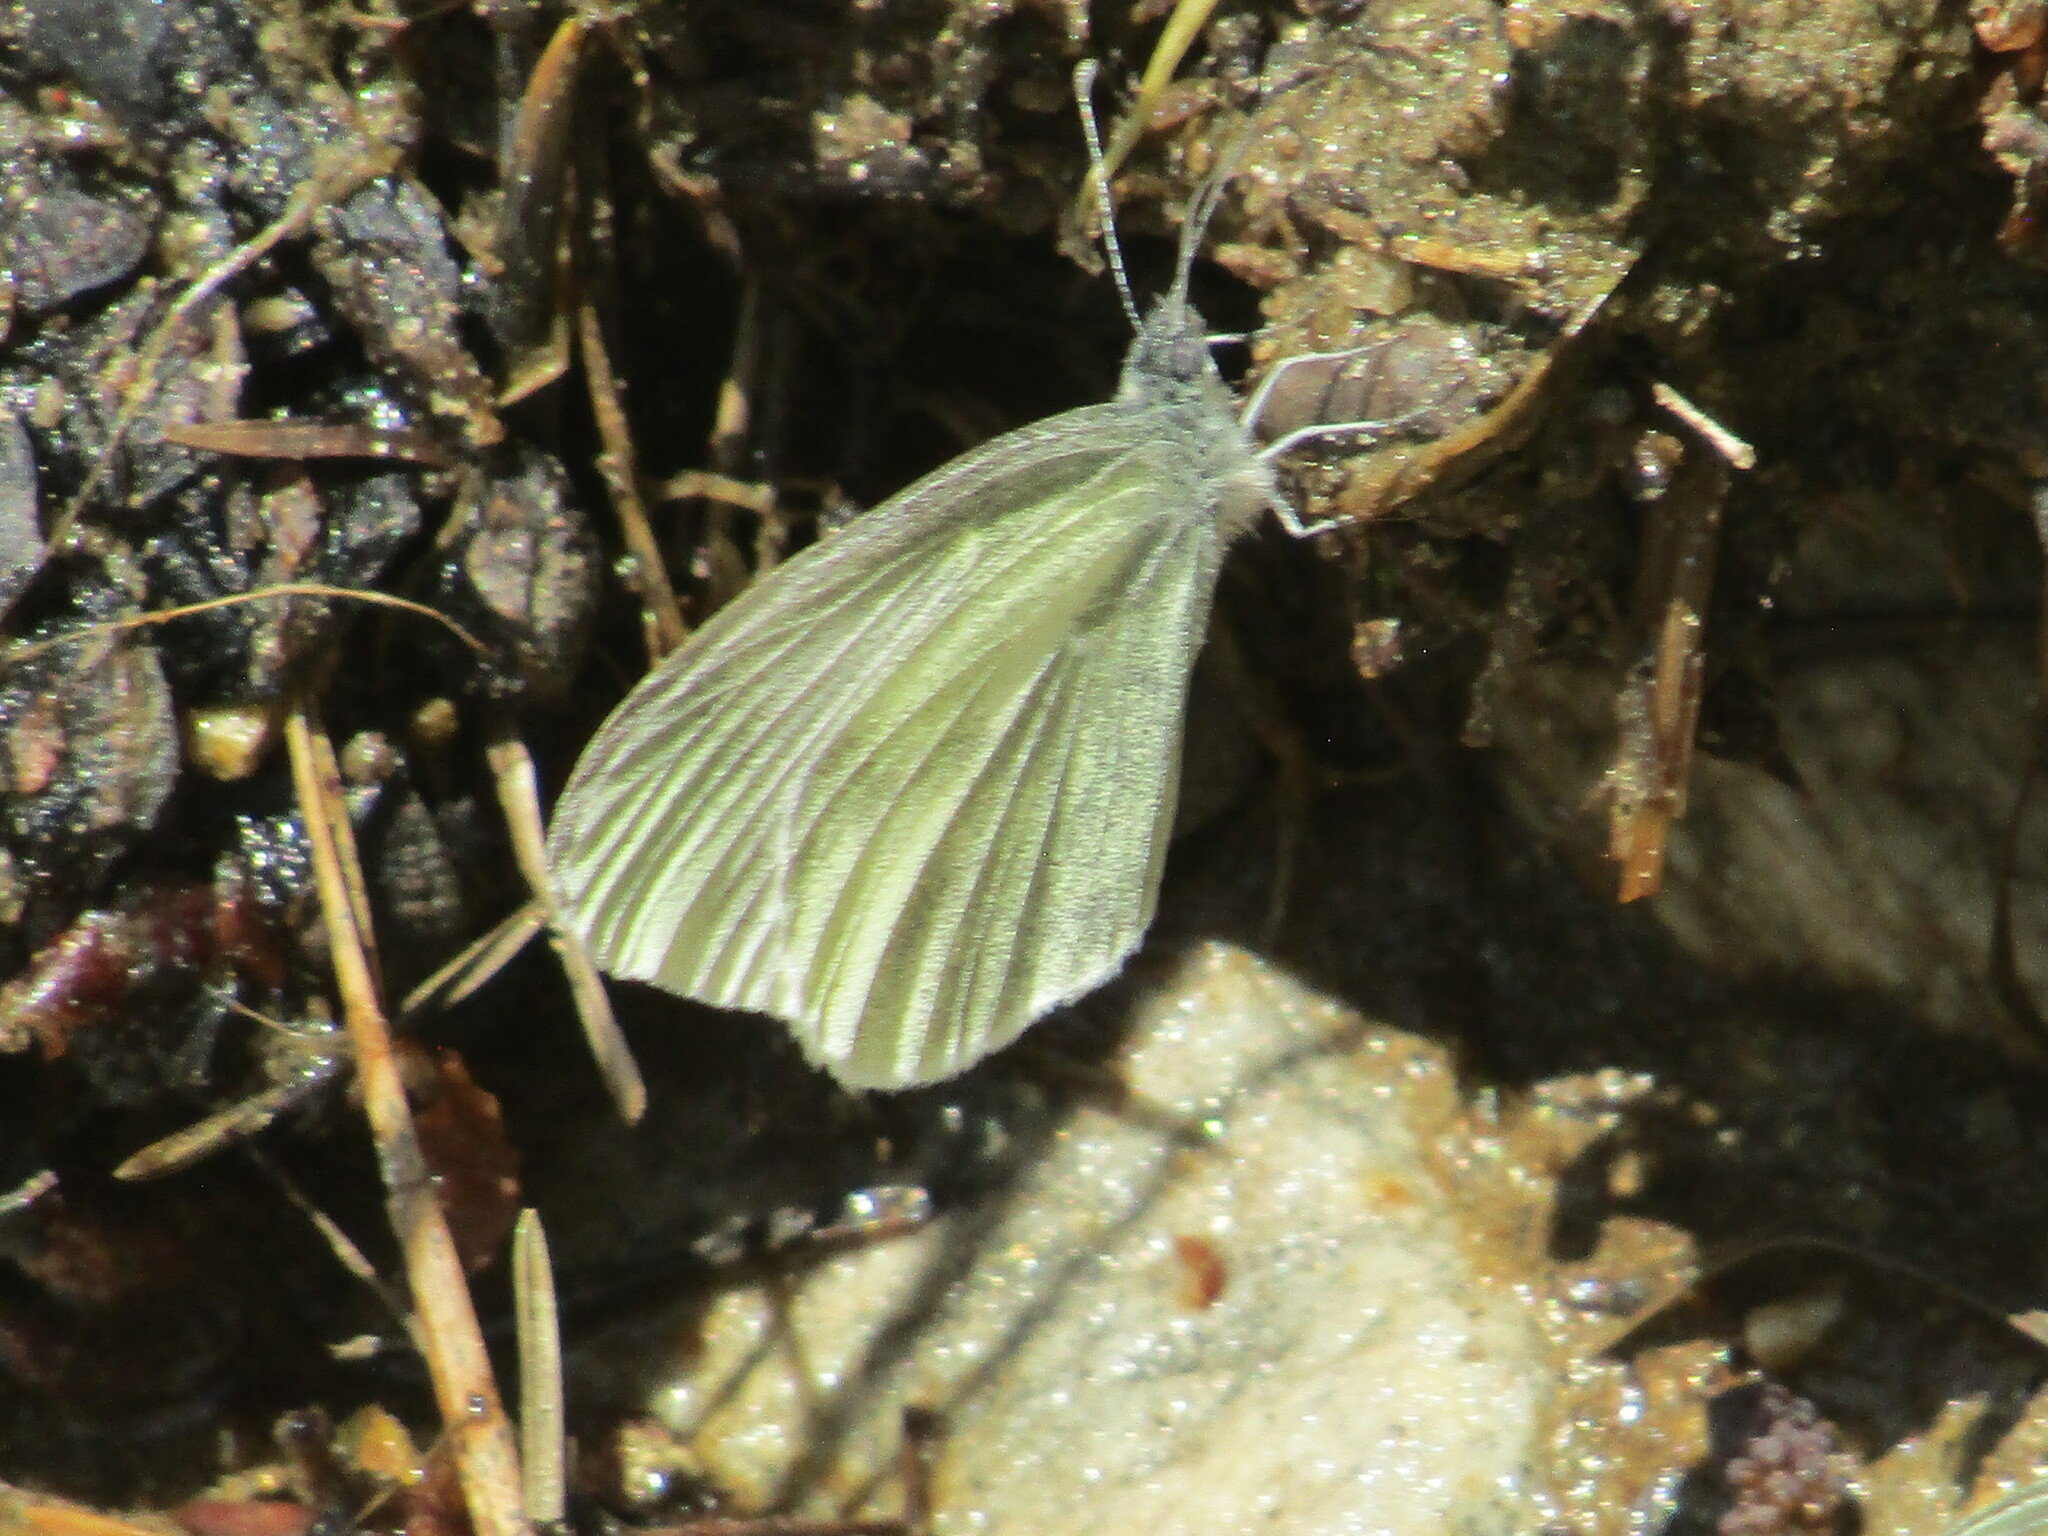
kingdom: Animalia
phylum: Arthropoda
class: Insecta
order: Lepidoptera
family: Pieridae
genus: Leptidea
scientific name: Leptidea
